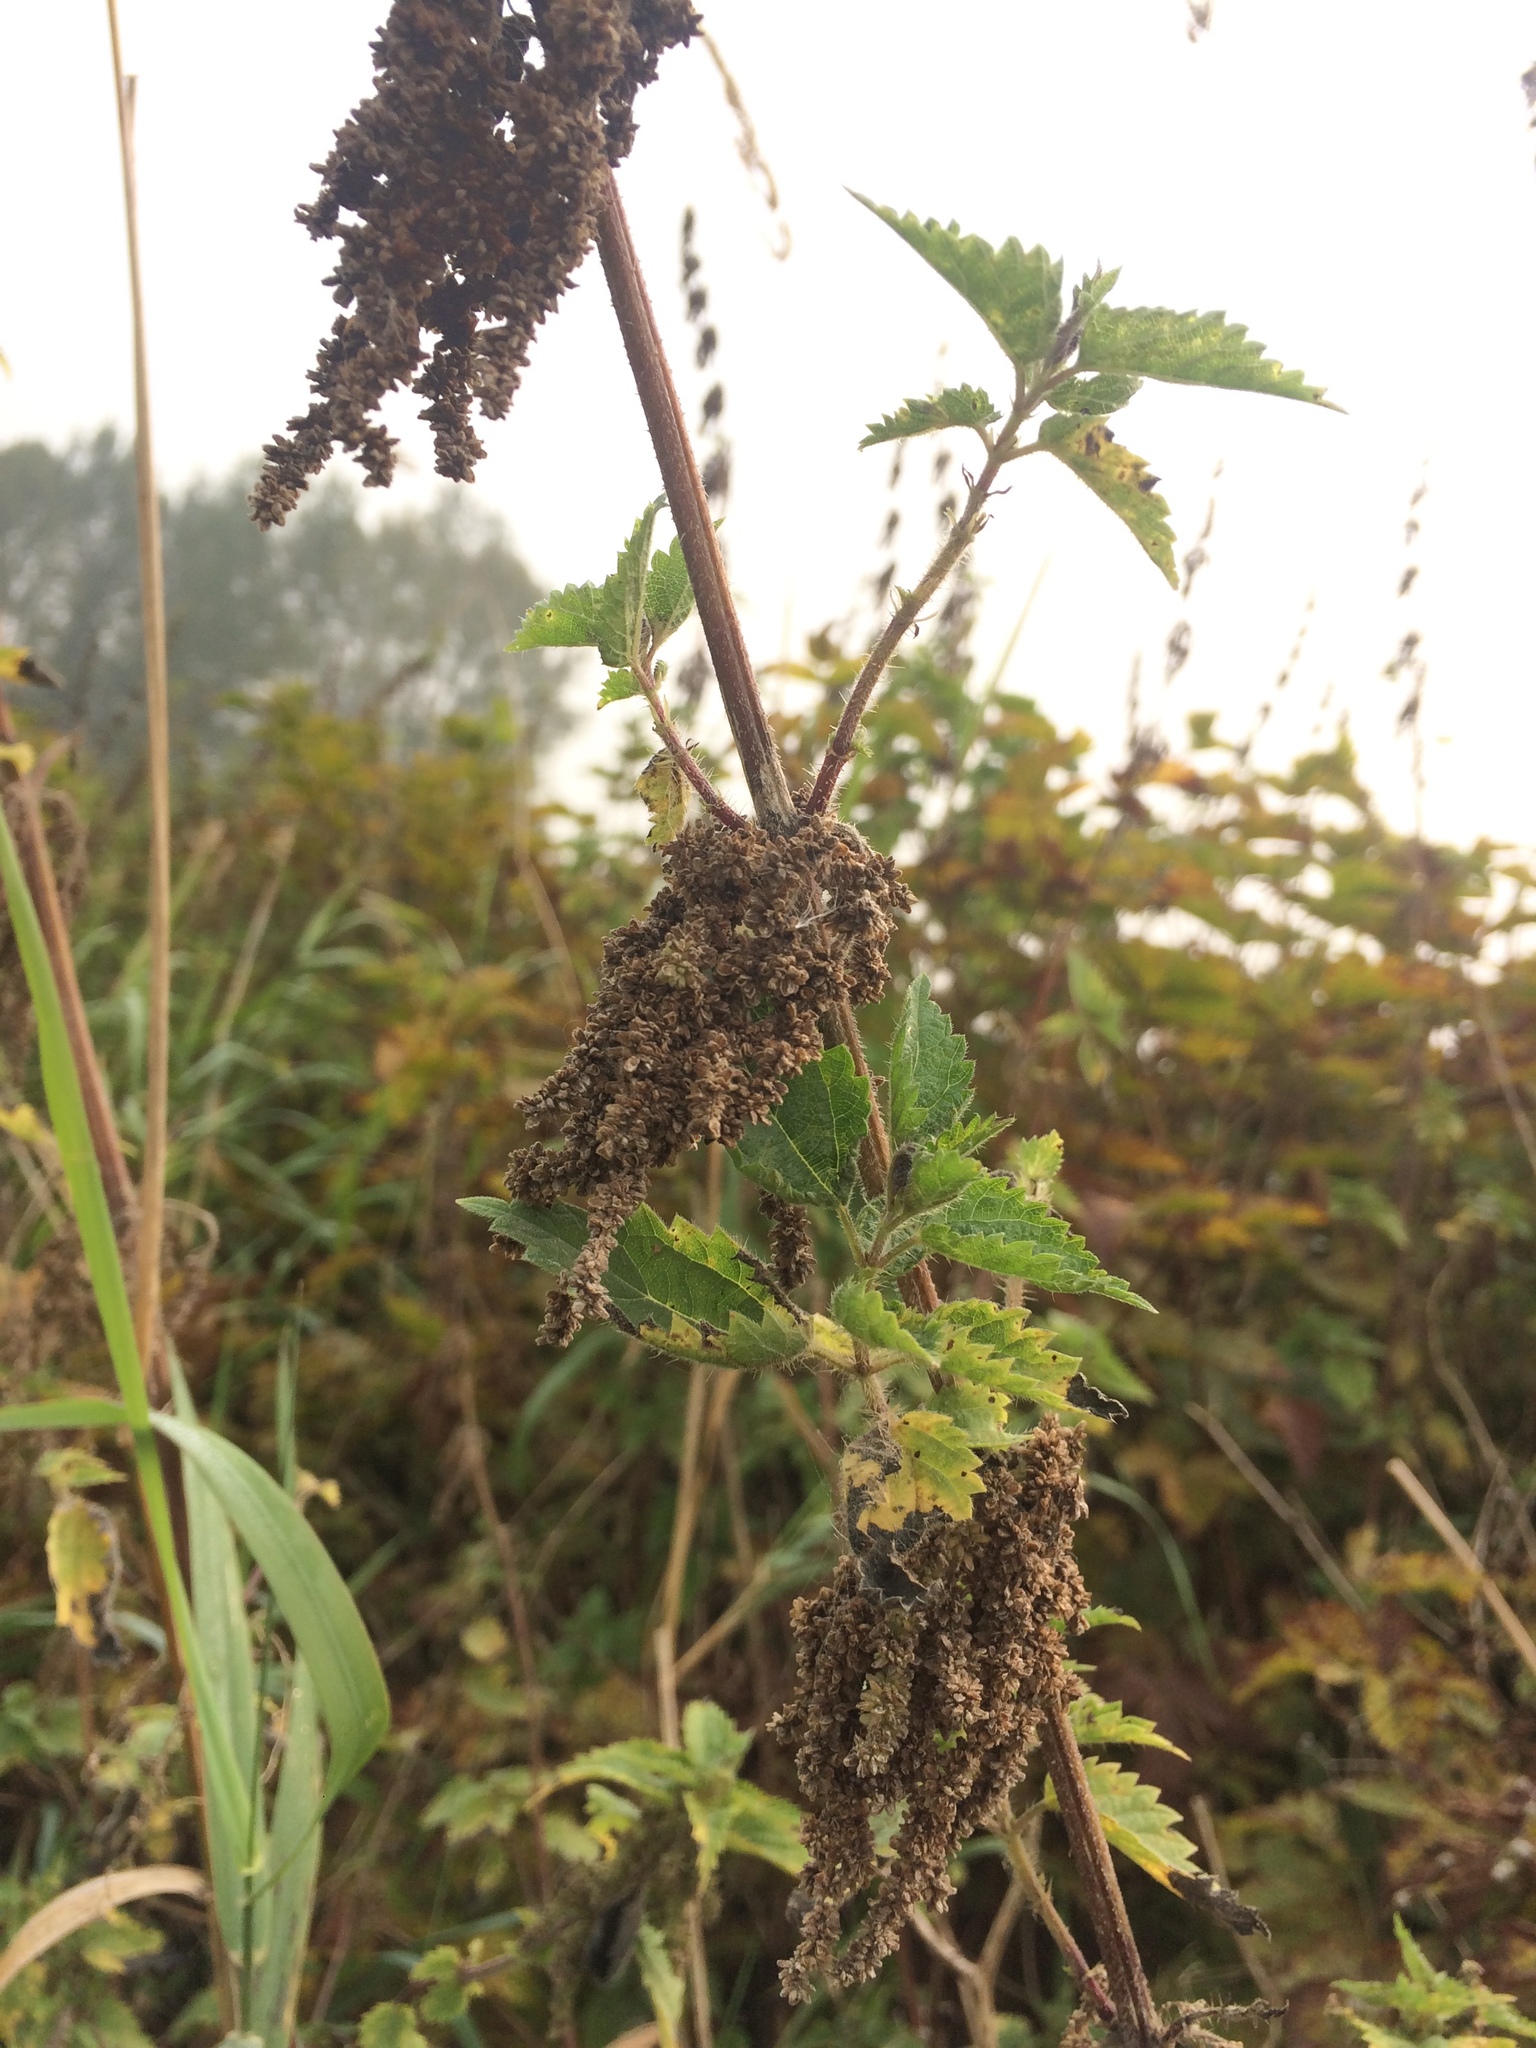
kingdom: Plantae
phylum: Tracheophyta
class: Magnoliopsida
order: Rosales
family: Urticaceae
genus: Urtica
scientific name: Urtica dioica
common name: Common nettle
